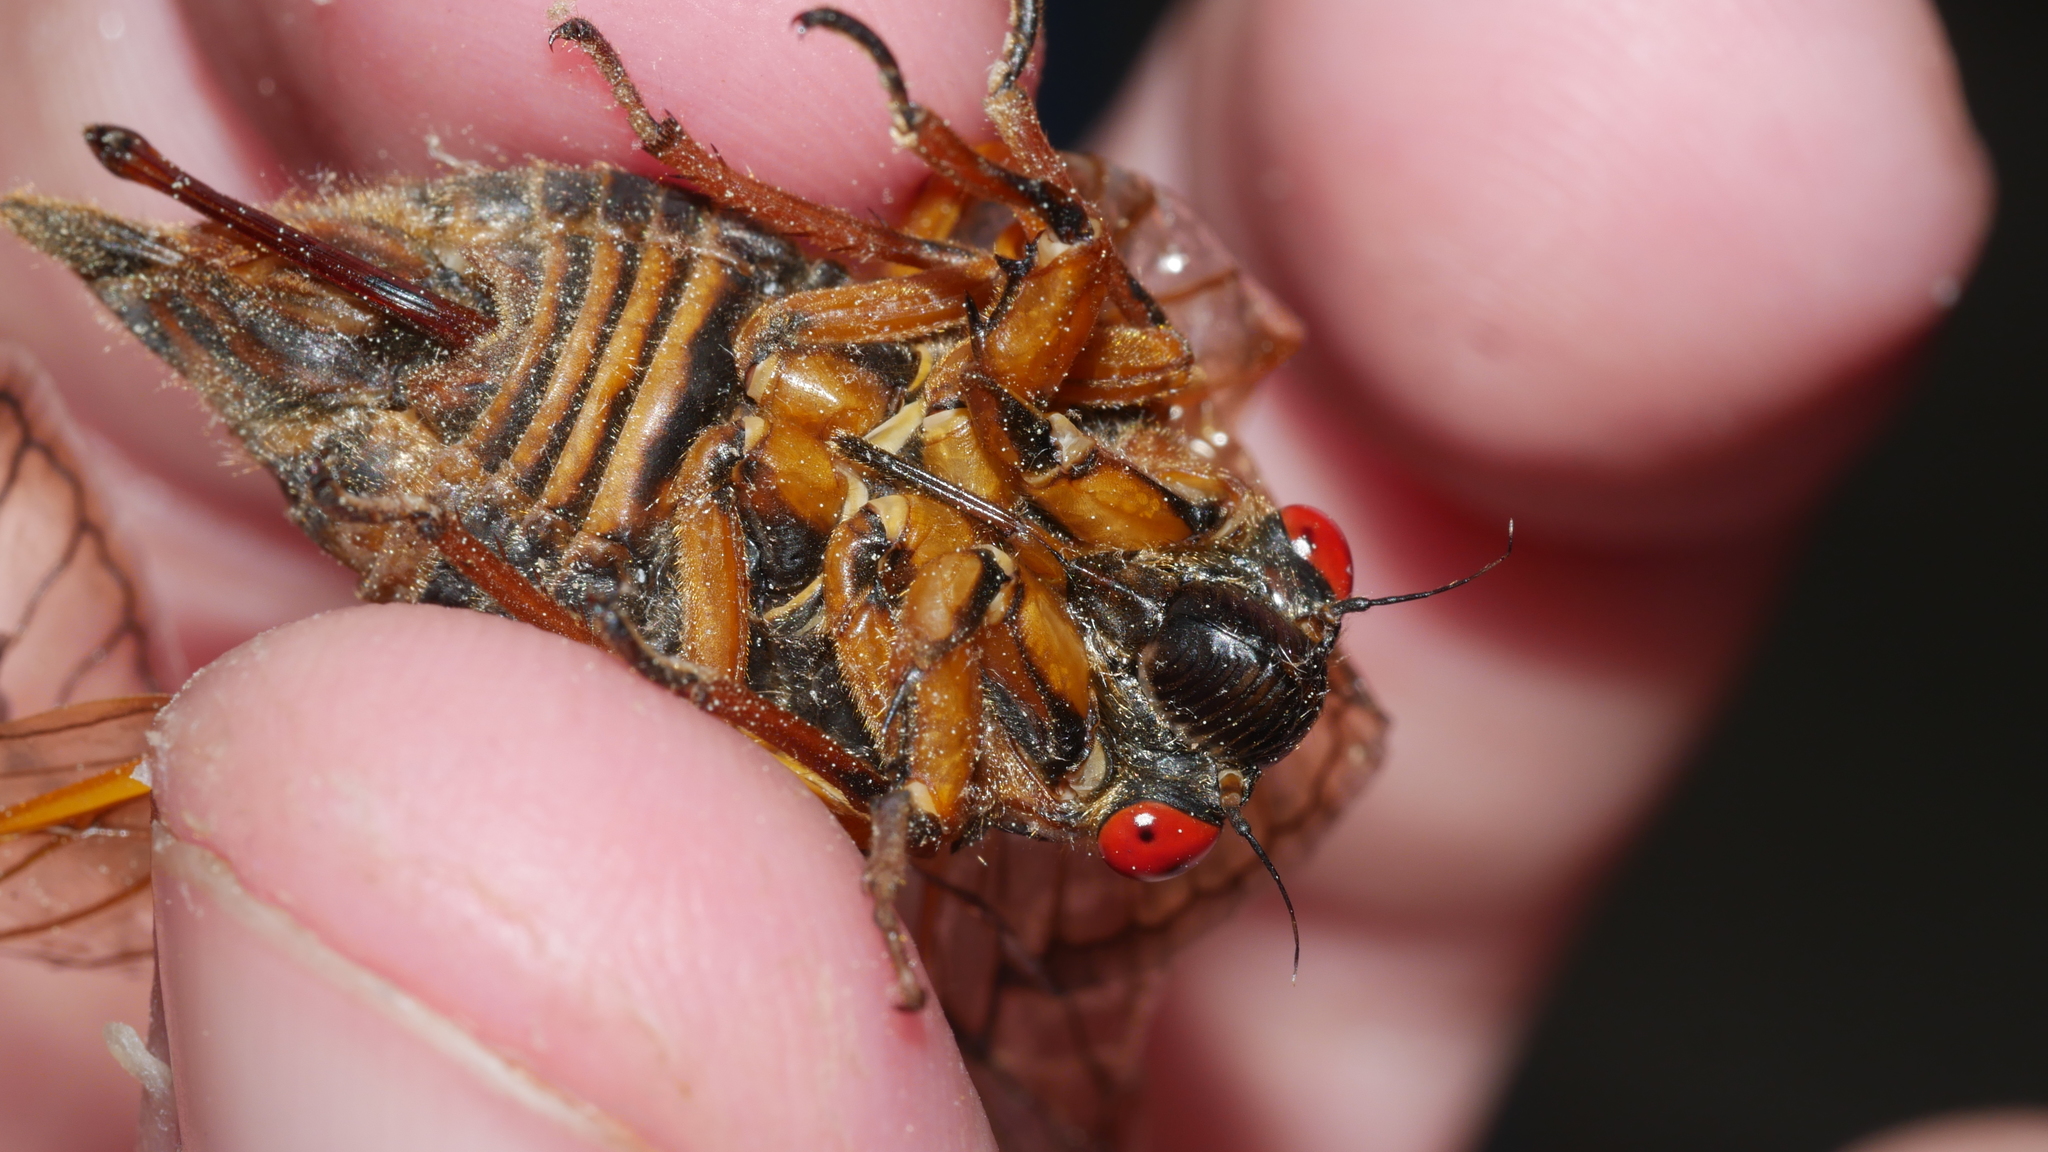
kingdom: Animalia
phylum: Arthropoda
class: Insecta
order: Hemiptera
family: Cicadidae
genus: Magicicada
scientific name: Magicicada septendecim
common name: Periodical cicada
